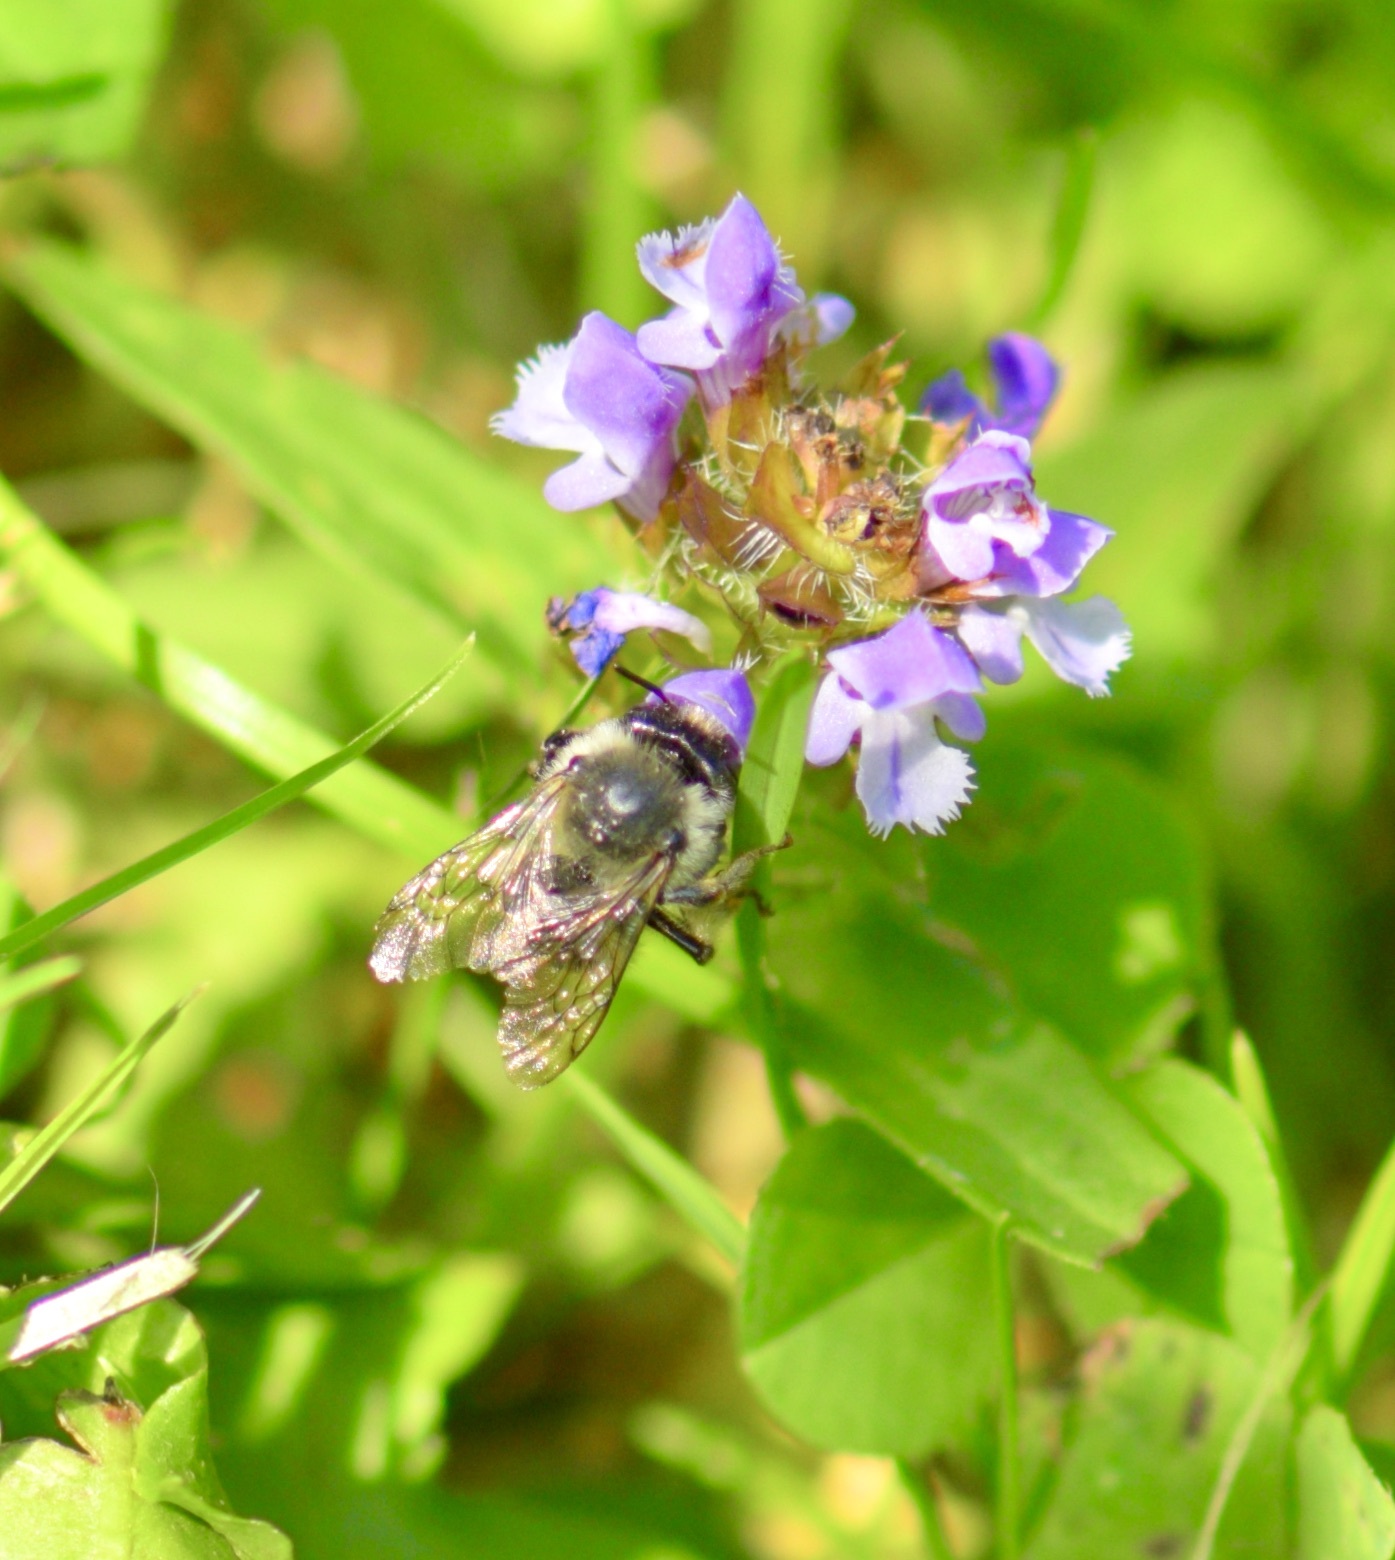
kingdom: Animalia
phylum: Arthropoda
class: Insecta
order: Hymenoptera
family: Apidae
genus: Anthophora
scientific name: Anthophora terminalis
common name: Orange-tipped wood-digger bee
